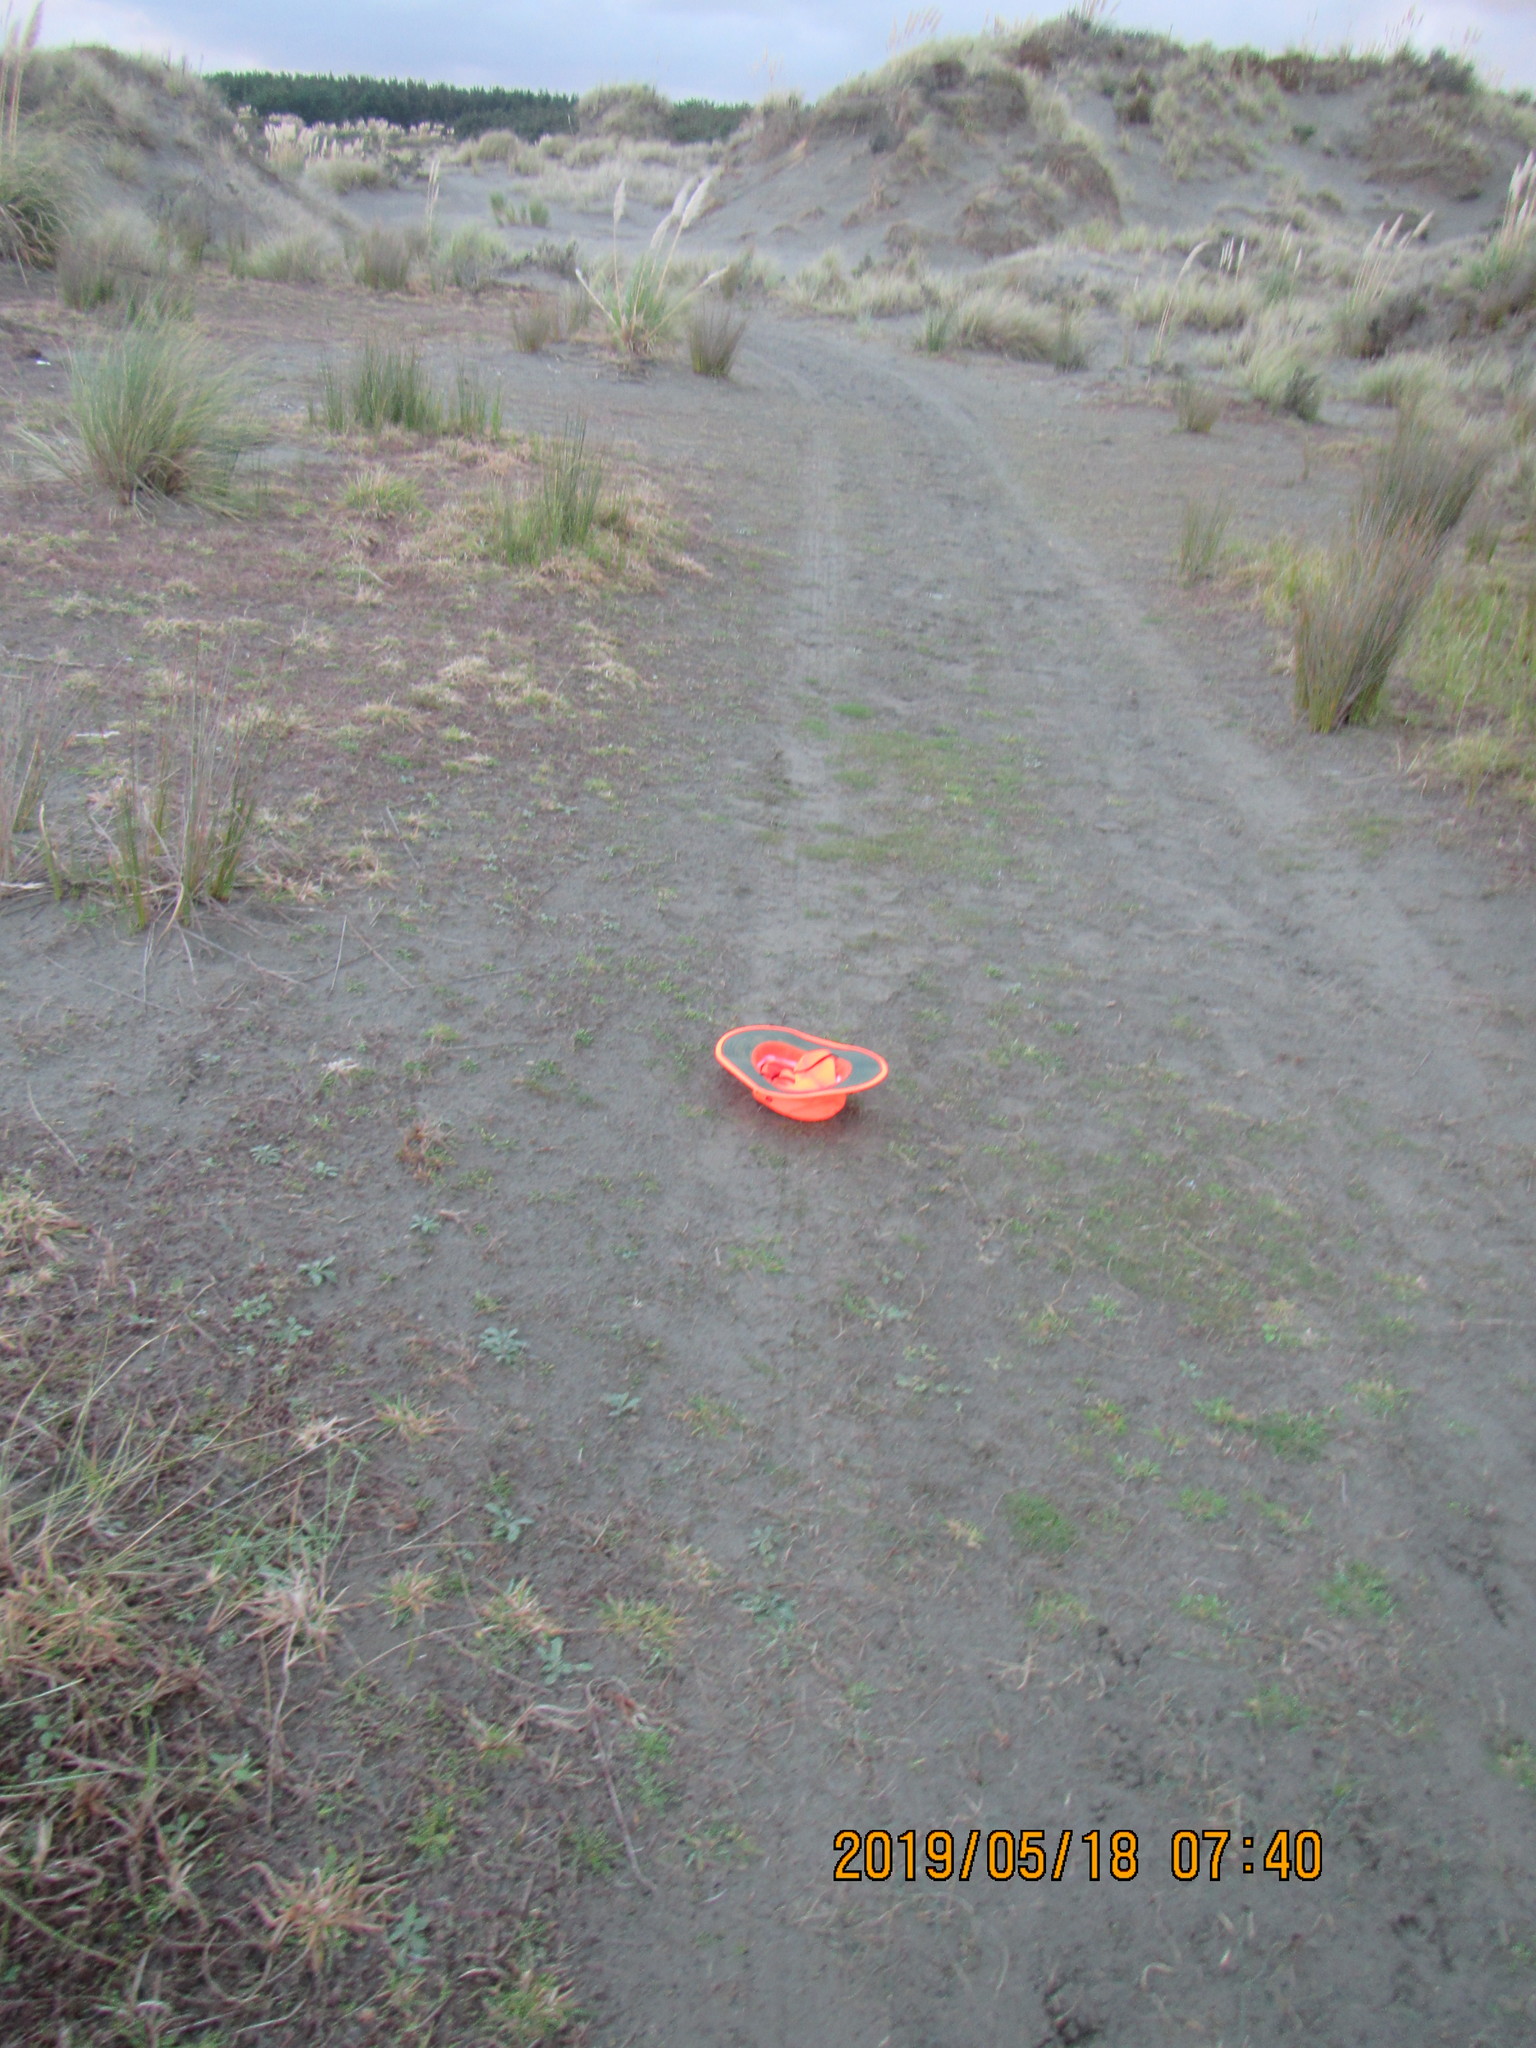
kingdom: Plantae
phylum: Tracheophyta
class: Magnoliopsida
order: Apiales
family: Apiaceae
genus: Lilaeopsis
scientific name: Lilaeopsis novae-zelandiae
